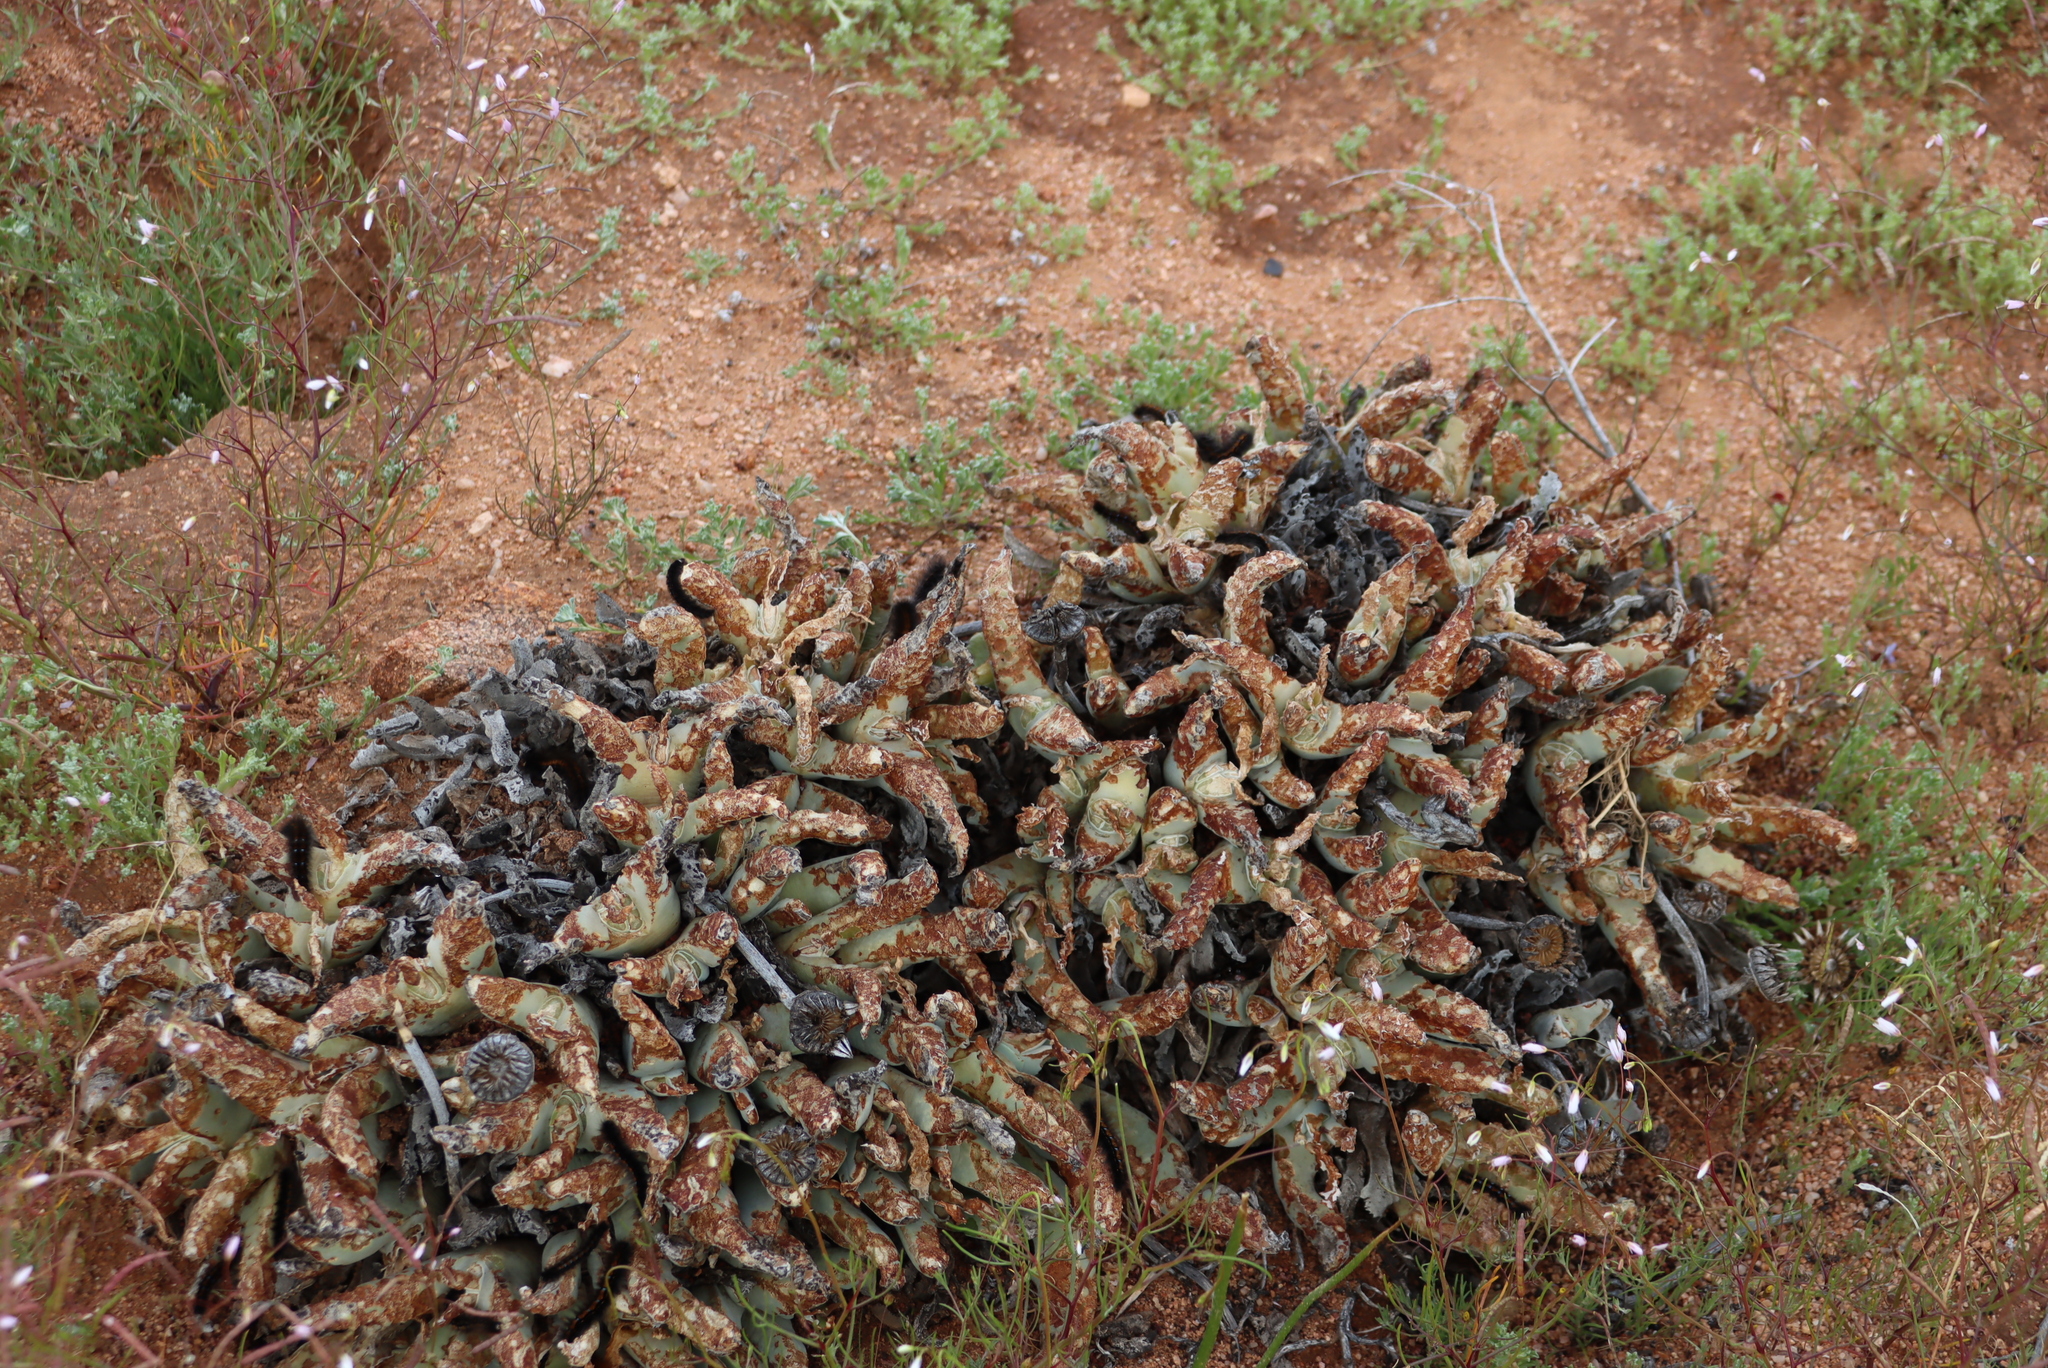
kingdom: Plantae
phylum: Tracheophyta
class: Magnoliopsida
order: Caryophyllales
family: Aizoaceae
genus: Cheiridopsis
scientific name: Cheiridopsis denticulata
